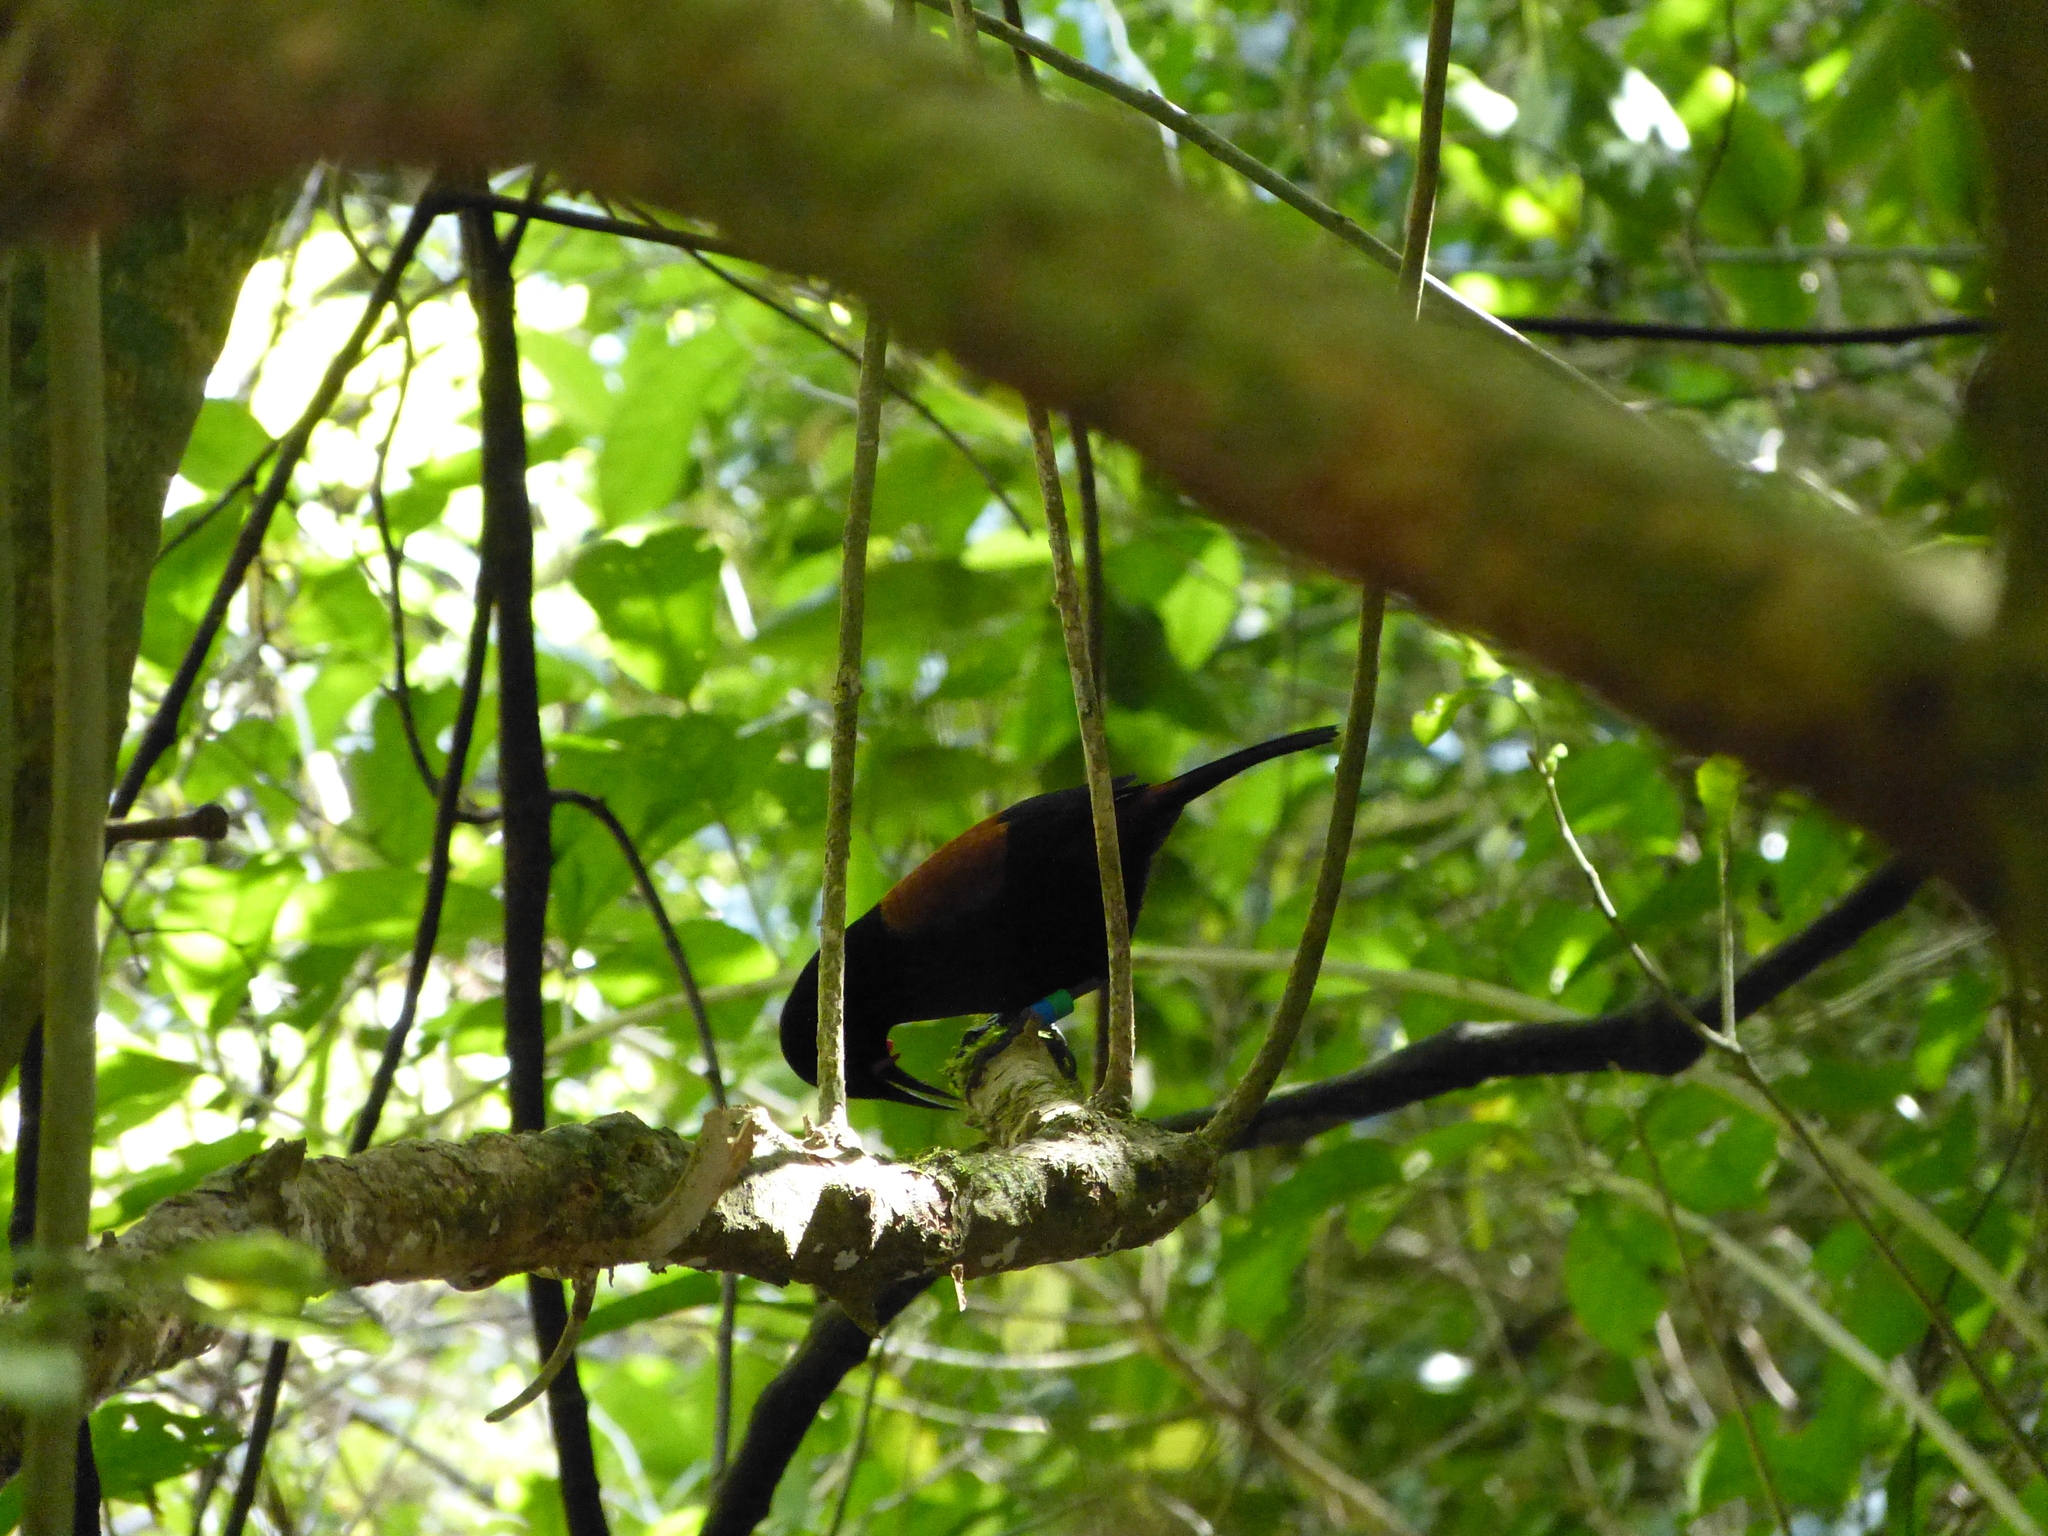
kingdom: Animalia
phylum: Chordata
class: Aves
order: Passeriformes
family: Callaeatidae
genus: Philesturnus
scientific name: Philesturnus carunculatus
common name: South island saddleback
